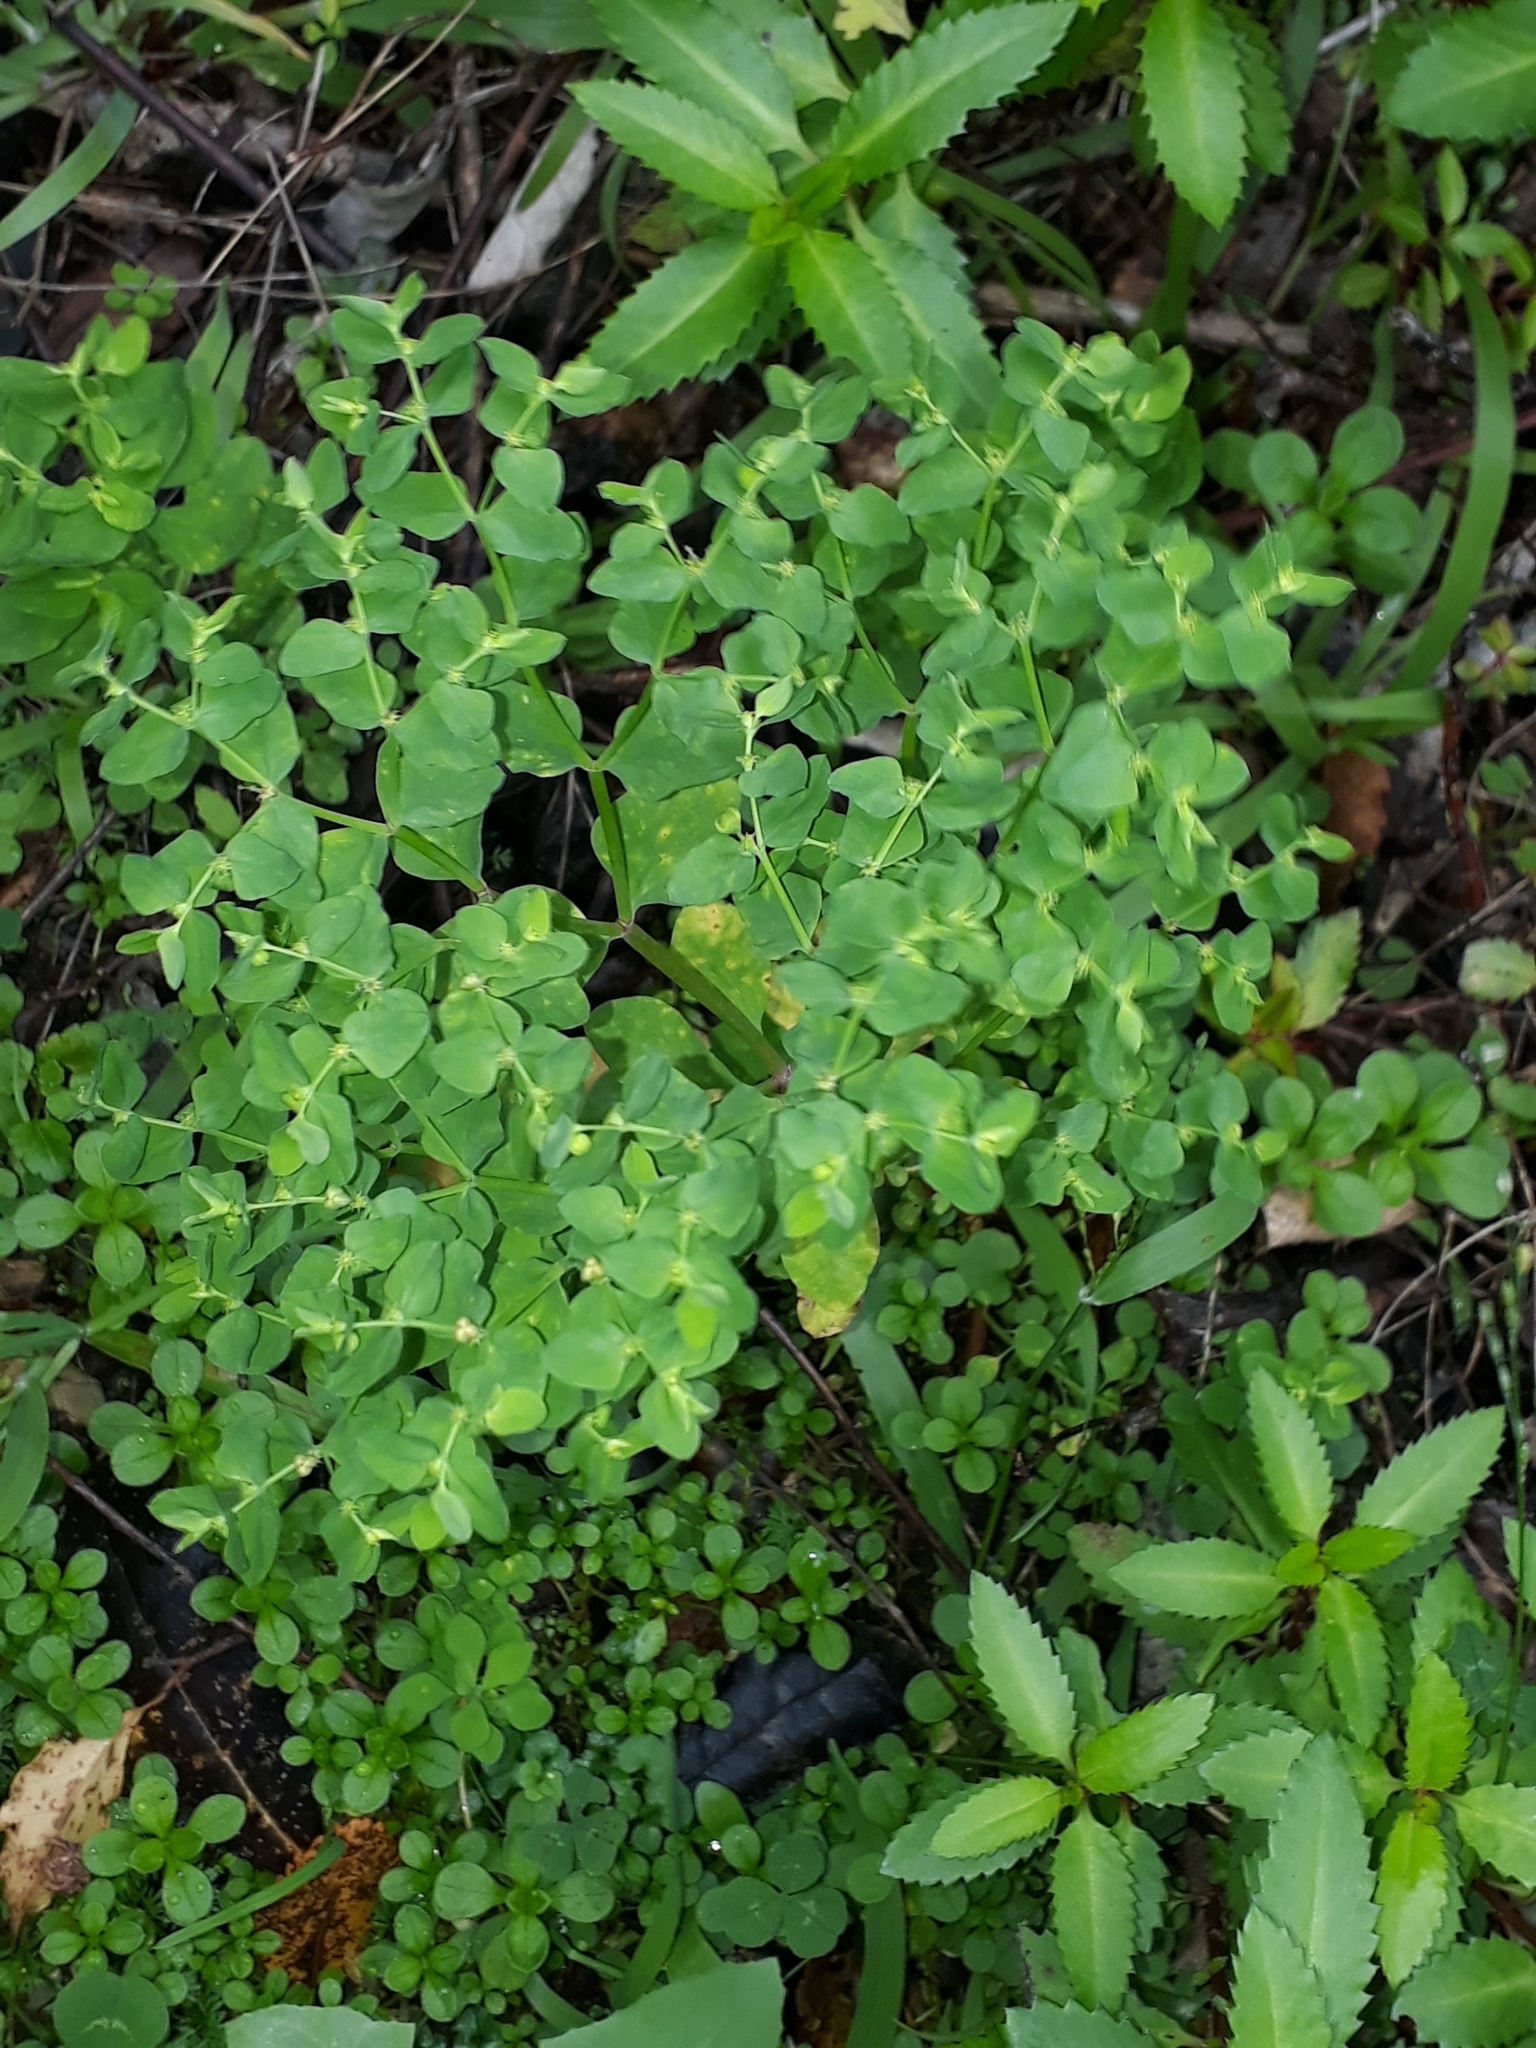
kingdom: Plantae
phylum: Tracheophyta
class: Magnoliopsida
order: Malpighiales
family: Euphorbiaceae
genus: Euphorbia
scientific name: Euphorbia peplus
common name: Petty spurge
